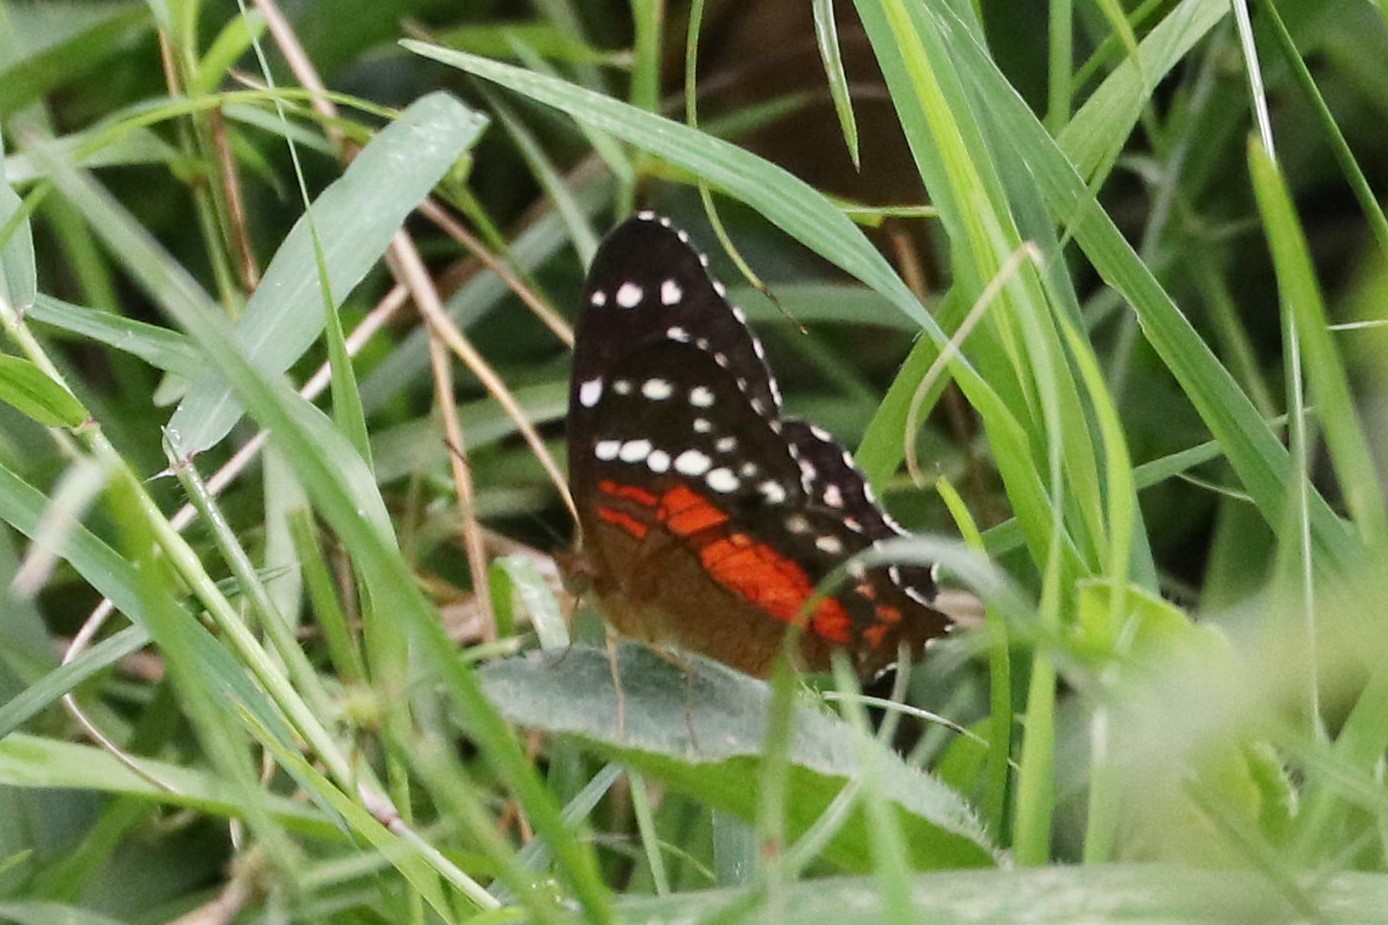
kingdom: Animalia
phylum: Arthropoda
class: Insecta
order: Lepidoptera
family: Nymphalidae
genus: Anartia
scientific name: Anartia amathea
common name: Red peacock
